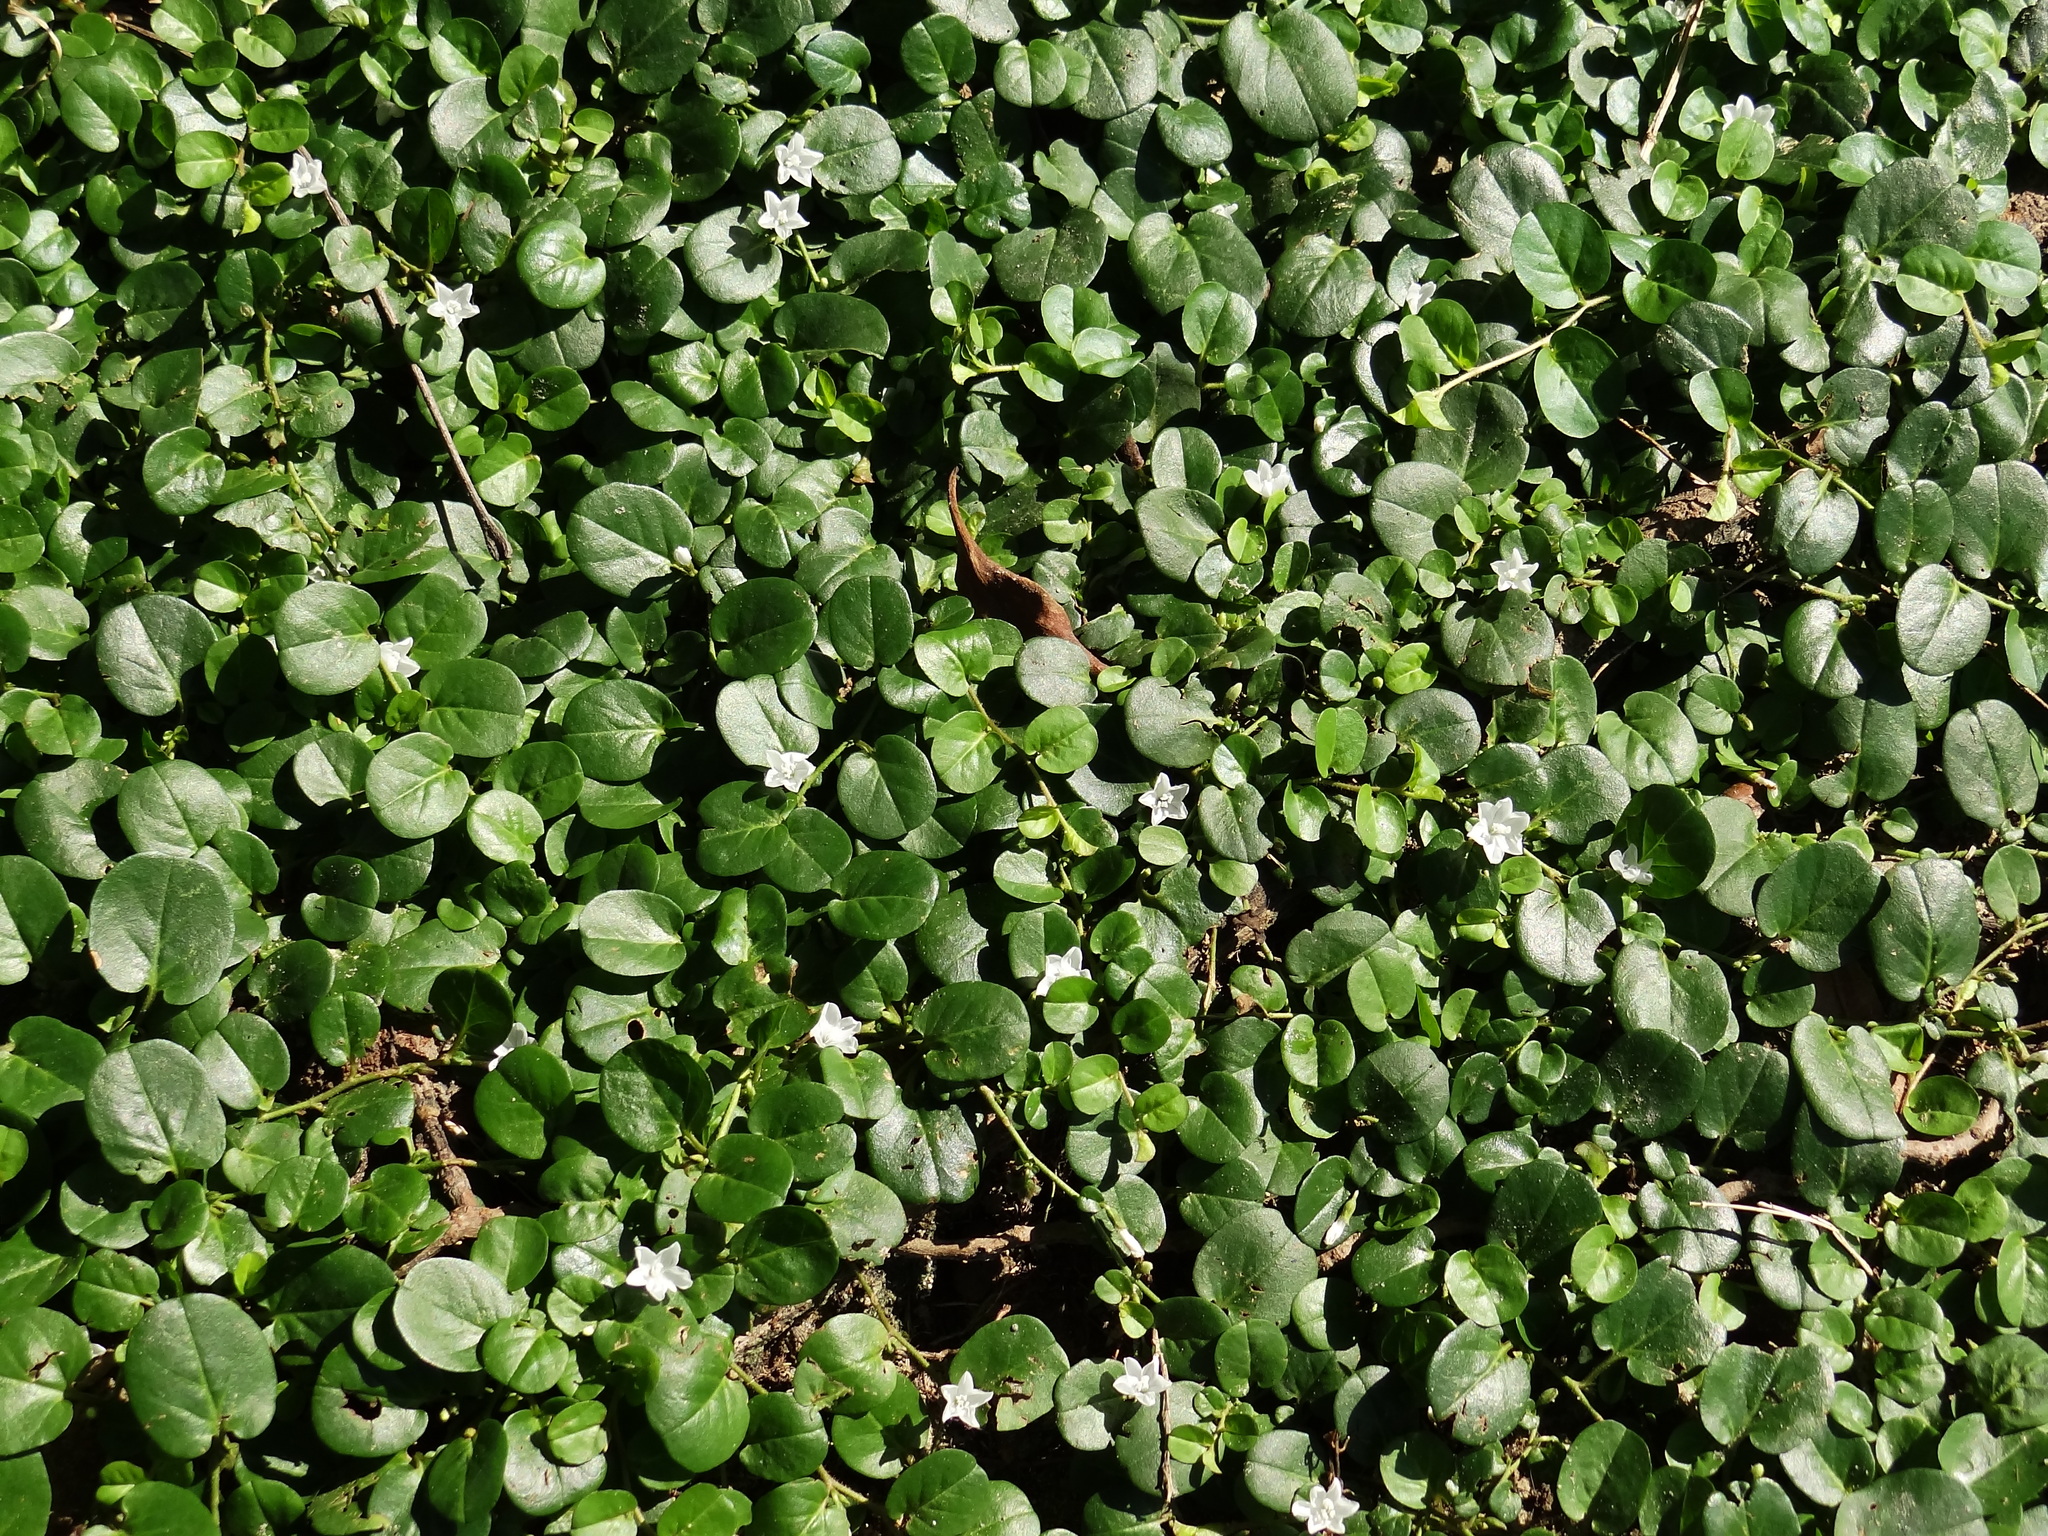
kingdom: Plantae
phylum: Tracheophyta
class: Magnoliopsida
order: Solanales
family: Convolvulaceae
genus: Evolvulus
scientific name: Evolvulus nummularius
